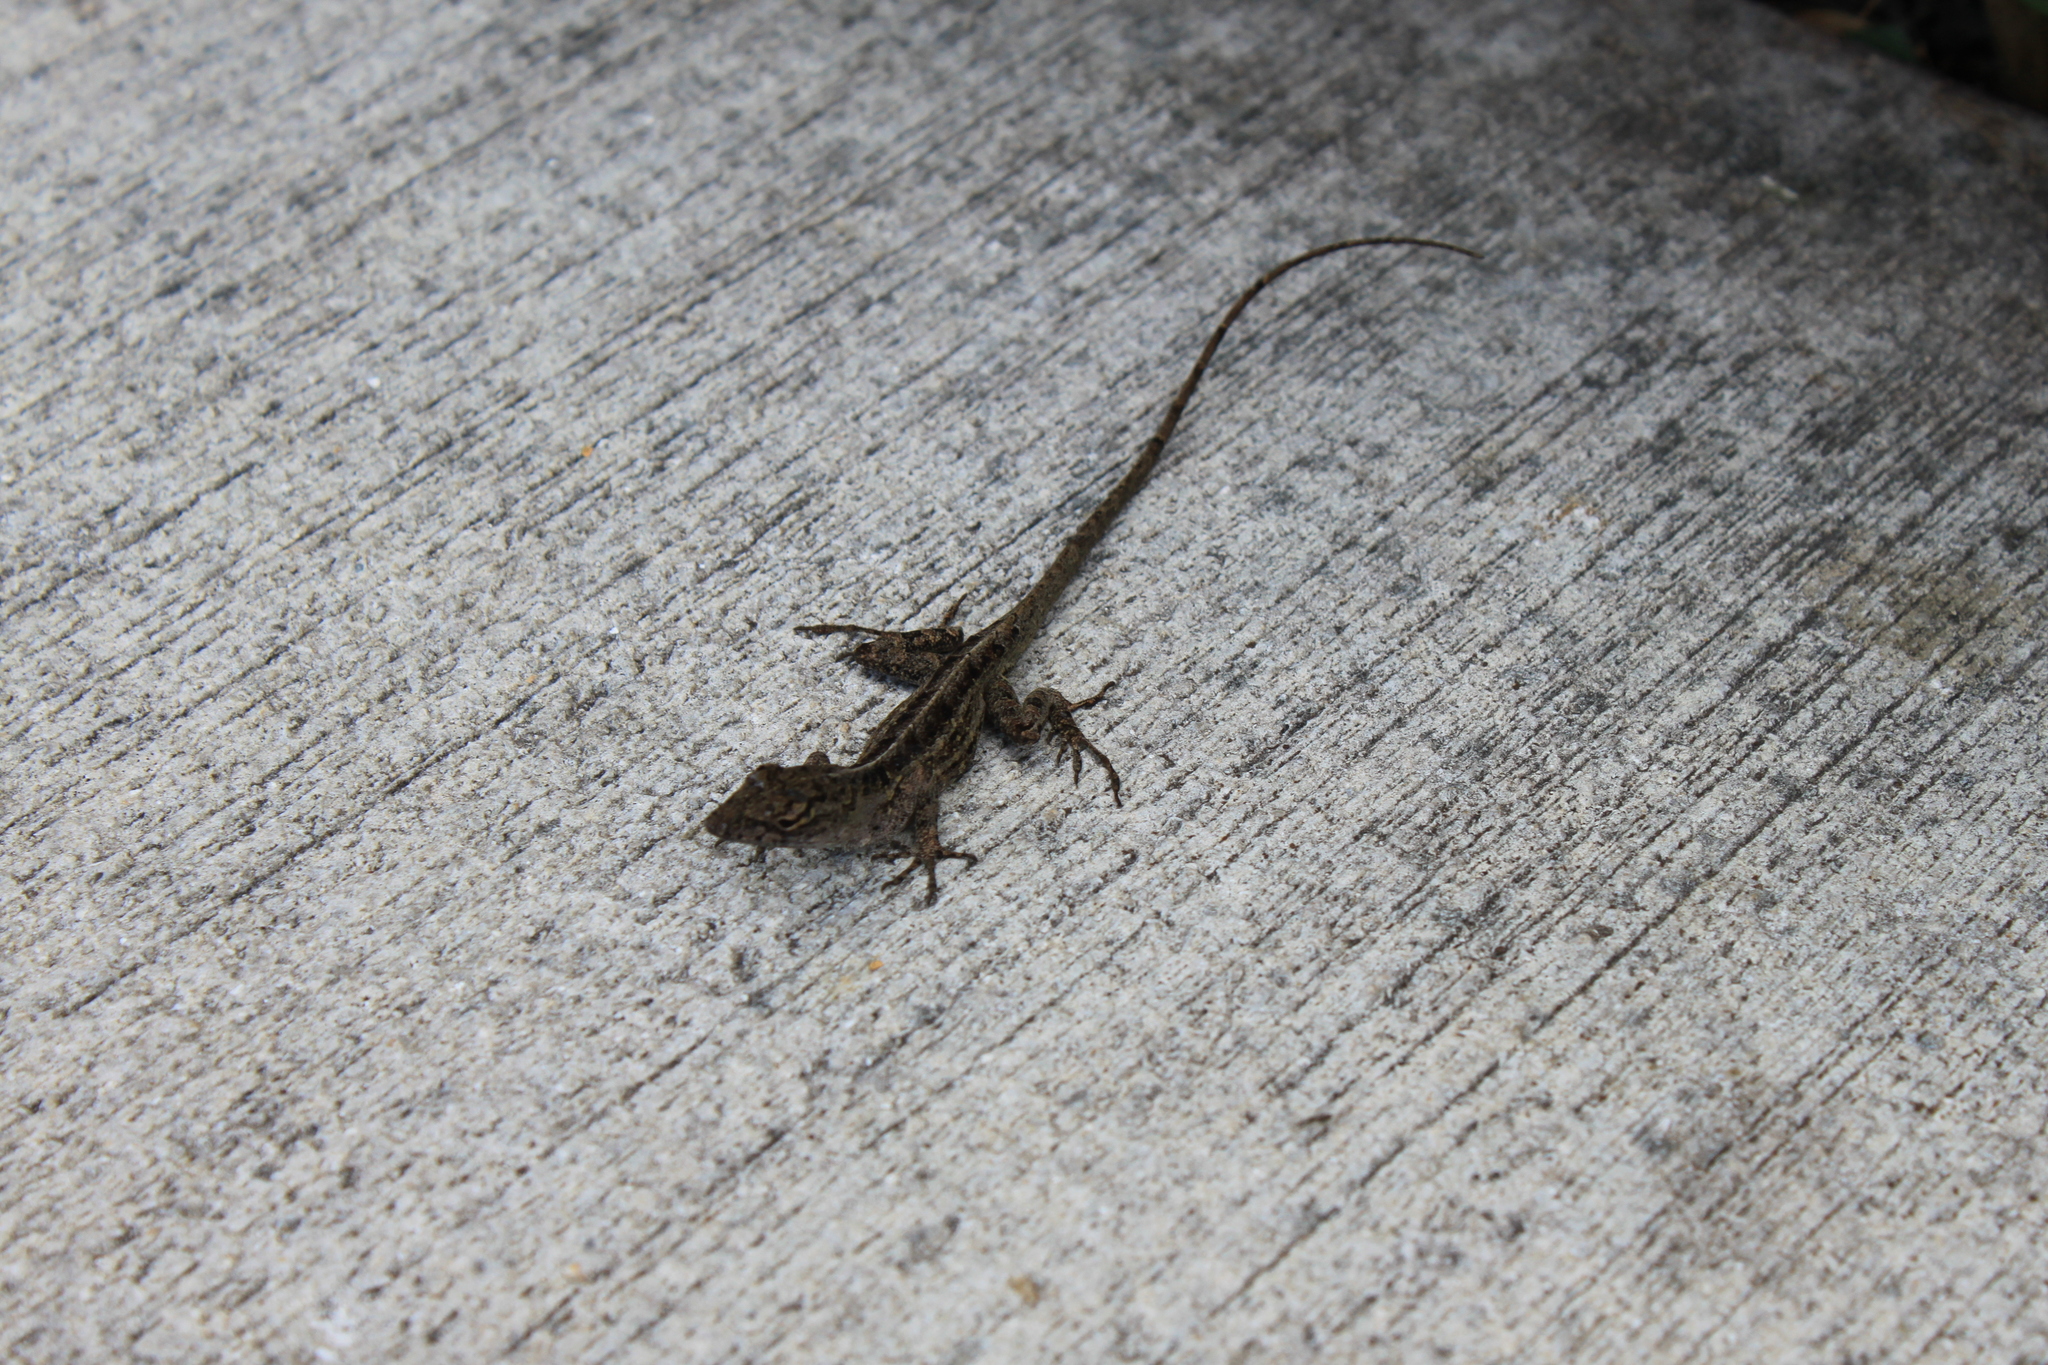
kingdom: Animalia
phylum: Chordata
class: Squamata
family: Dactyloidae
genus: Anolis
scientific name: Anolis sagrei
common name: Brown anole
